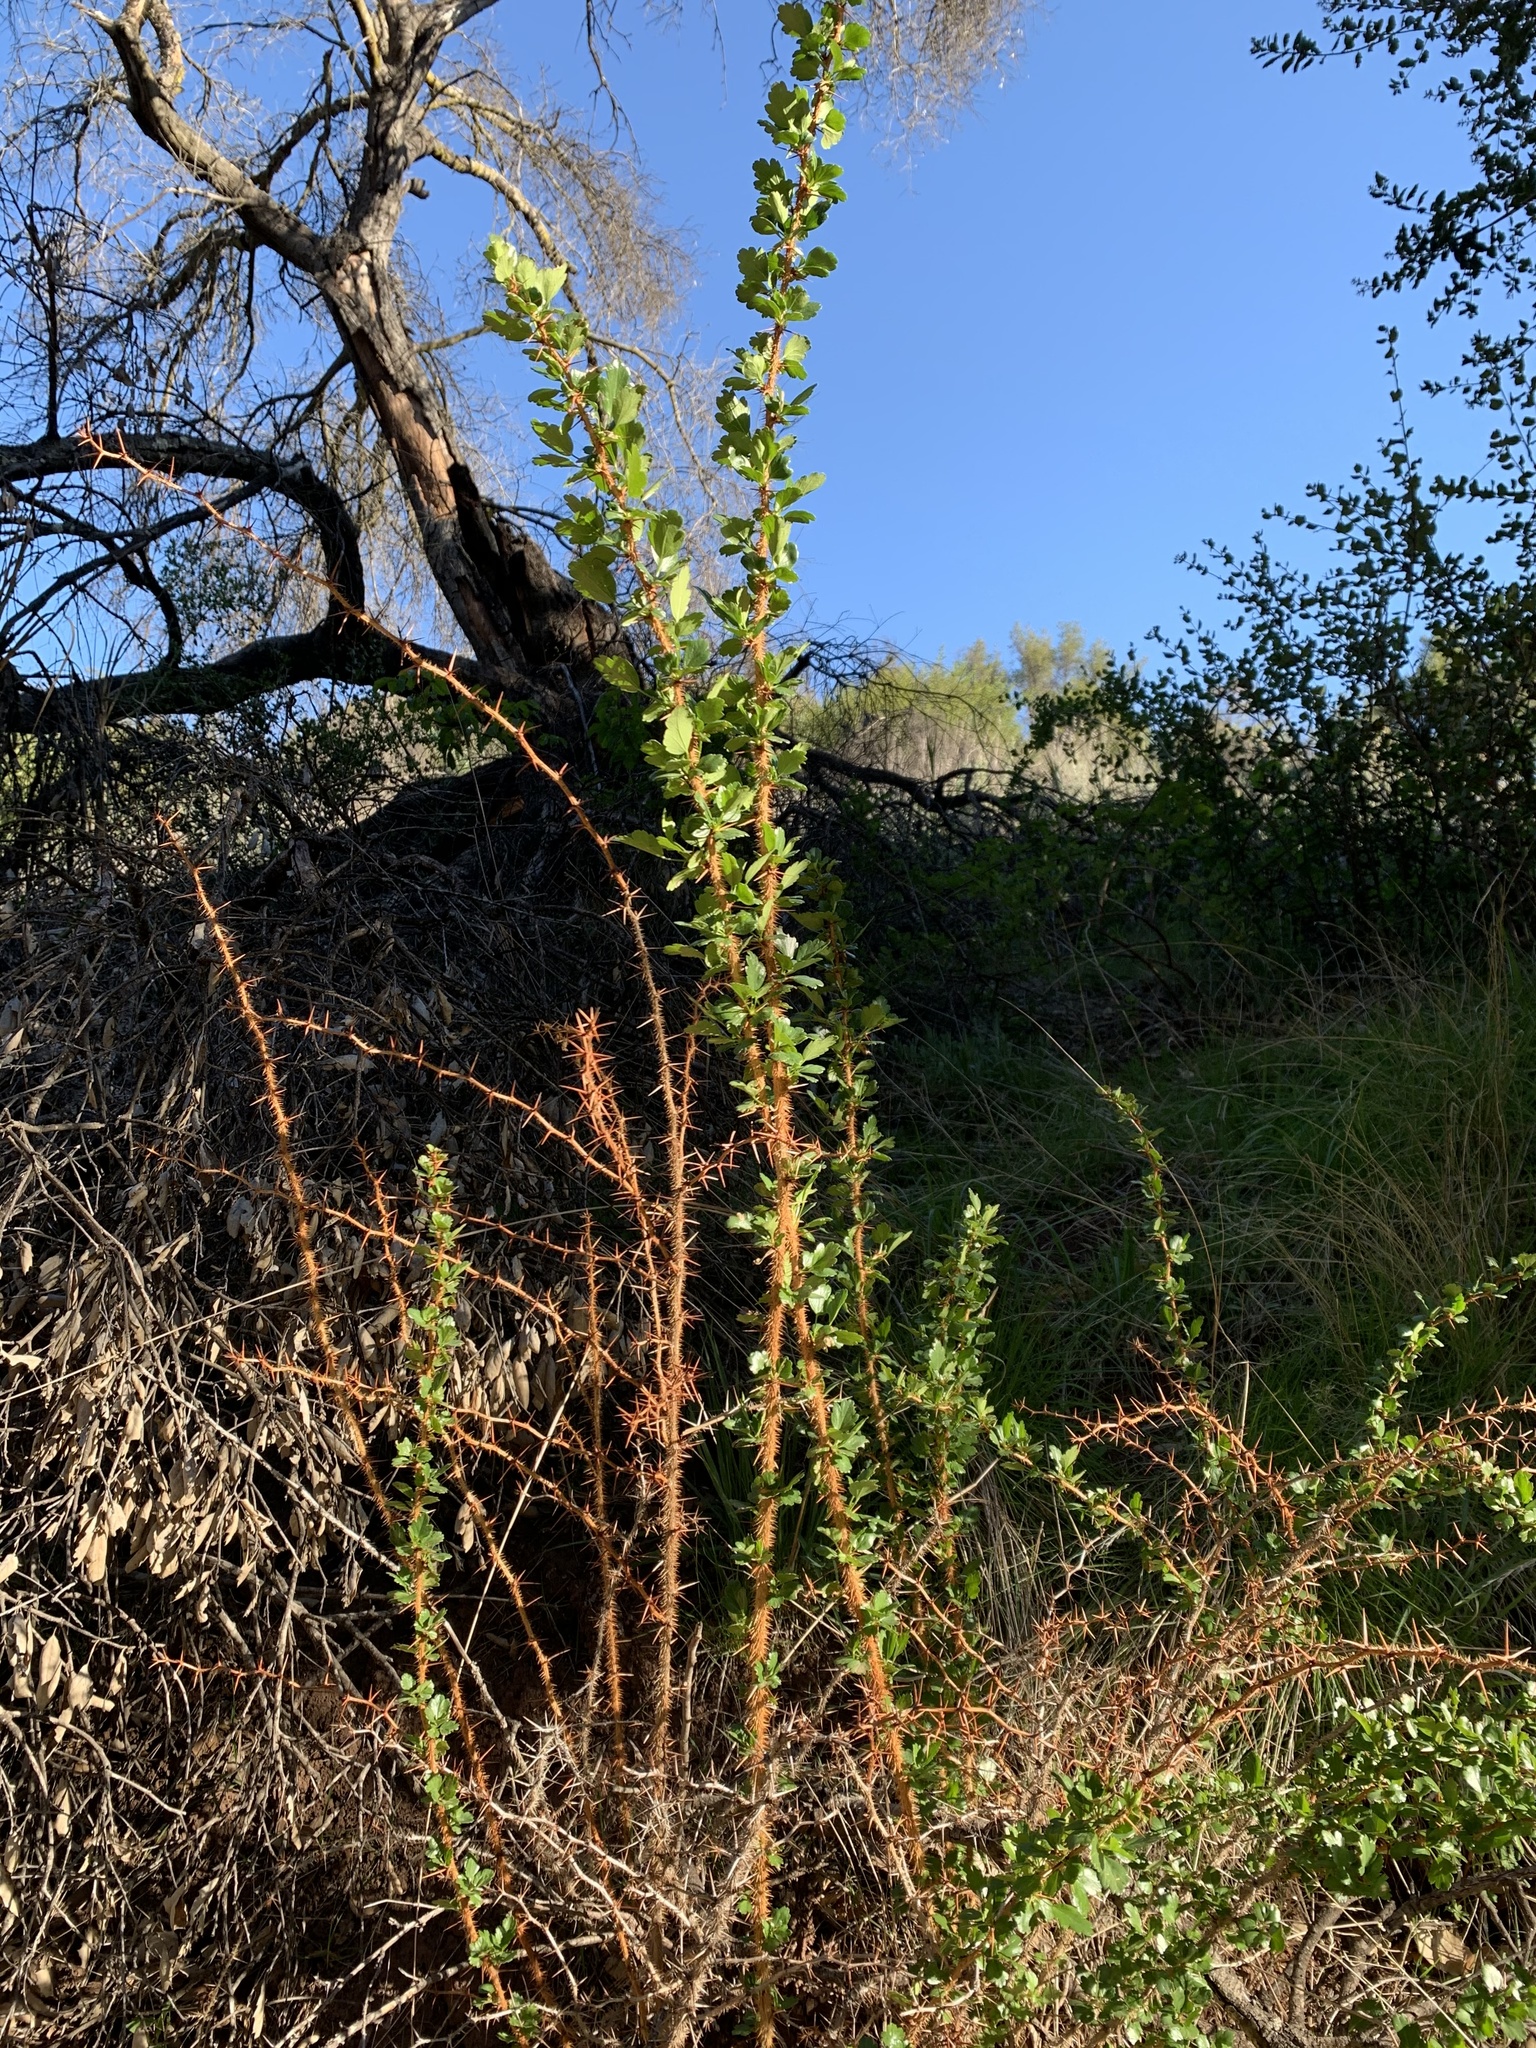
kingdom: Plantae
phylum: Tracheophyta
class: Magnoliopsida
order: Saxifragales
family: Grossulariaceae
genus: Ribes
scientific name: Ribes speciosum
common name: Fuchsia-flower gooseberry
